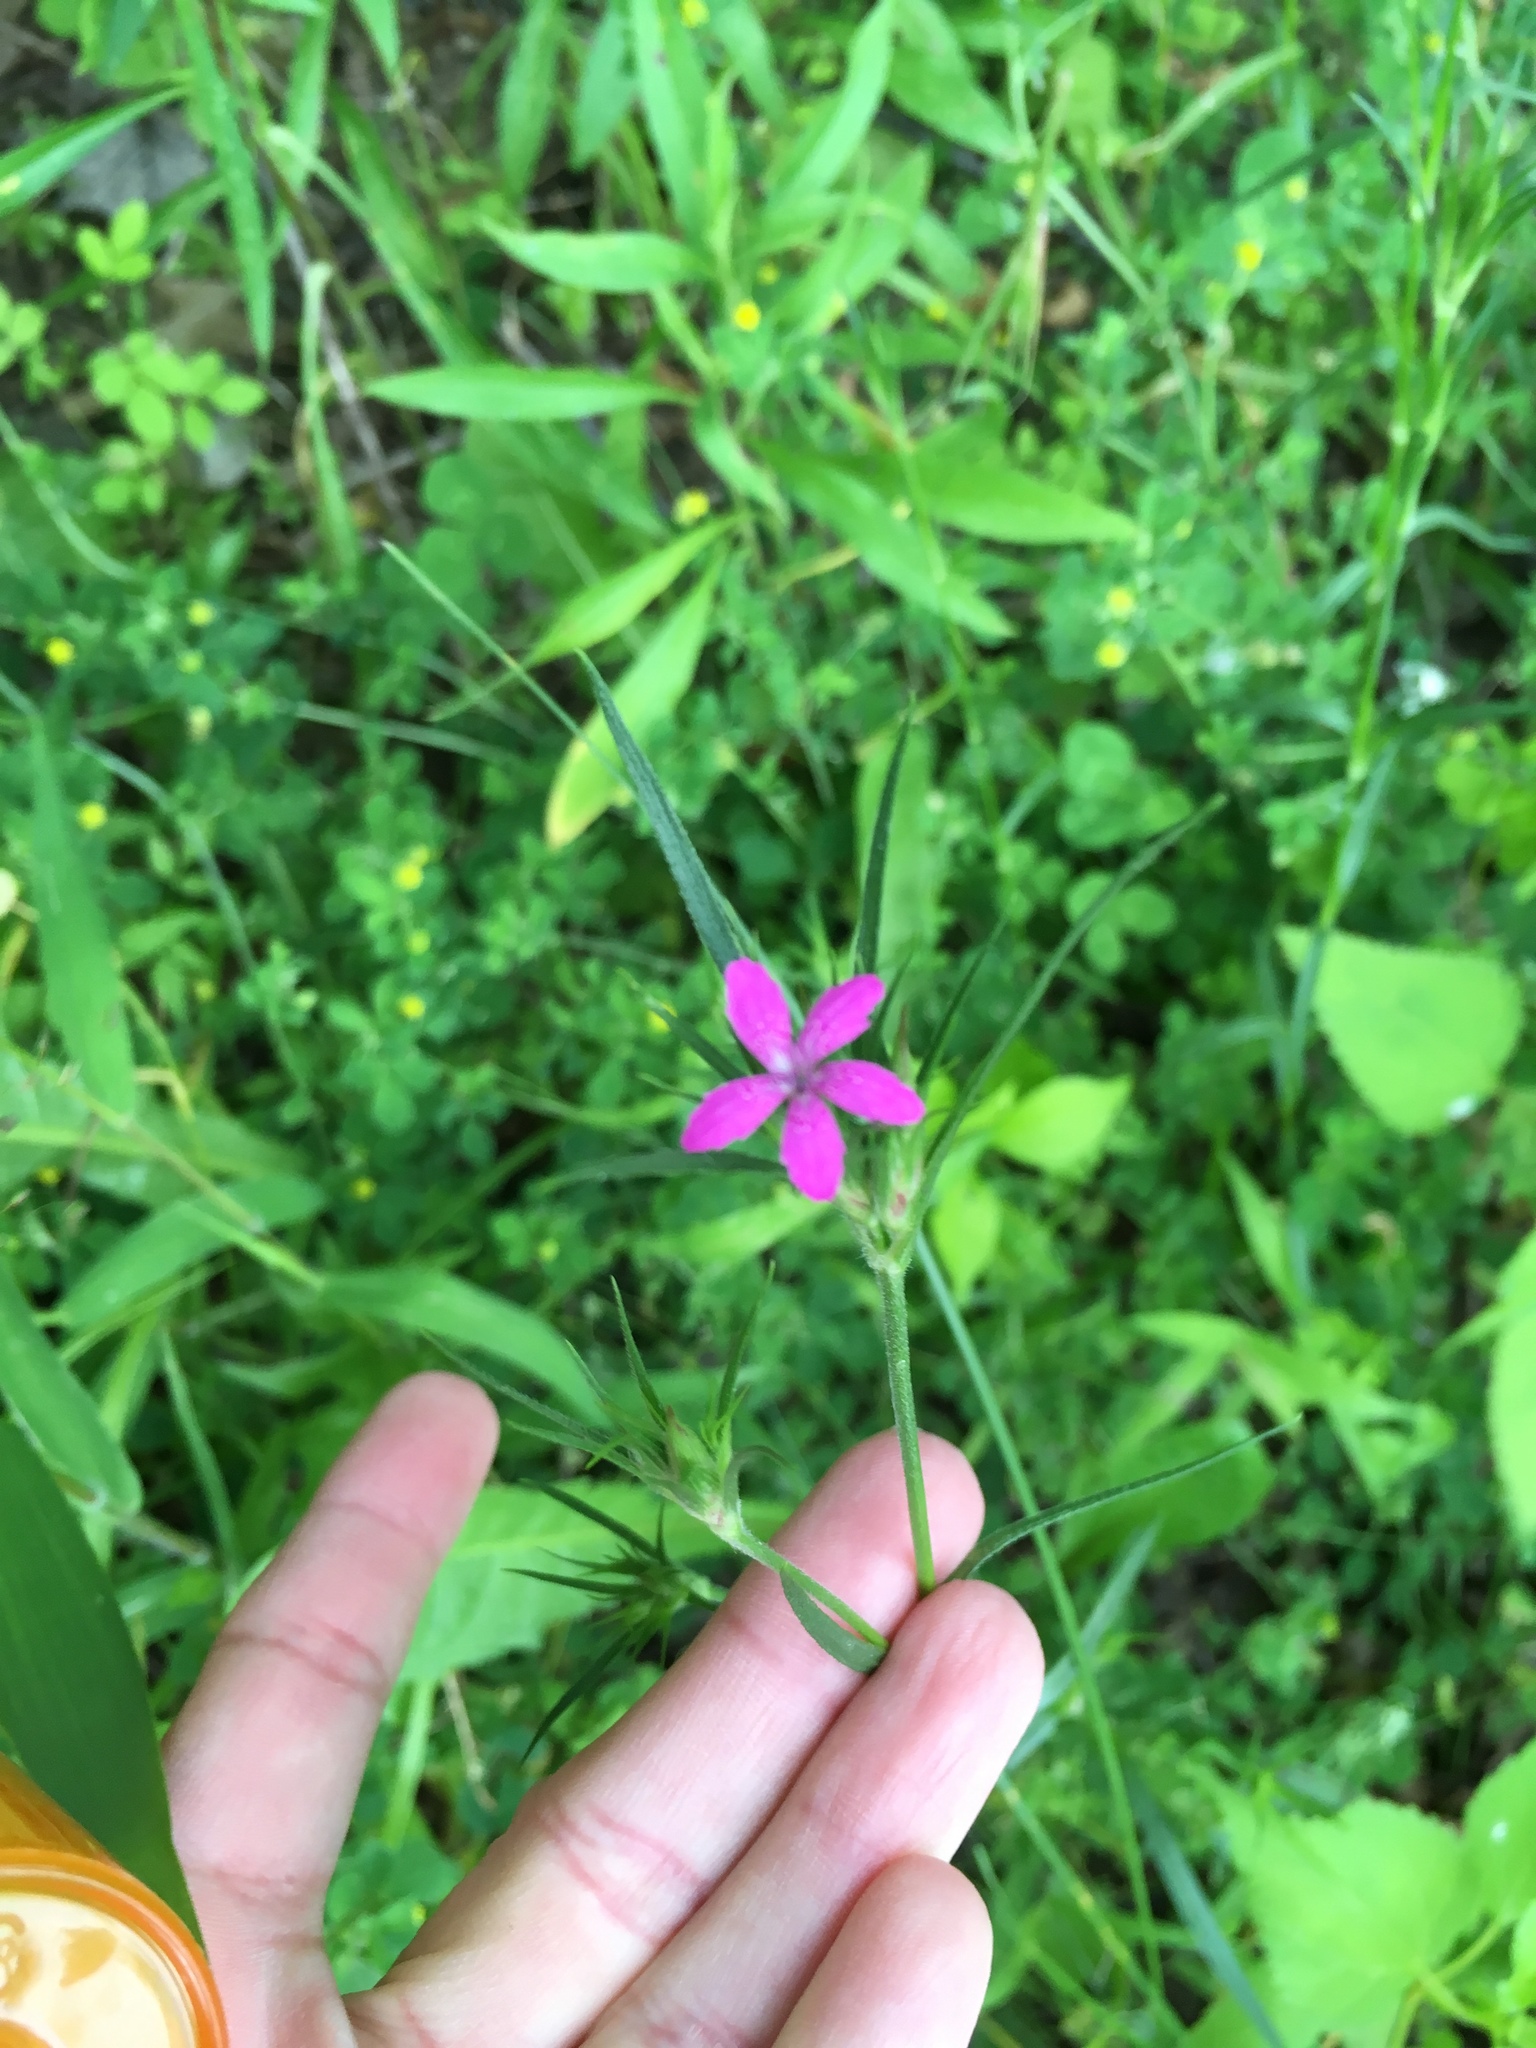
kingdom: Plantae
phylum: Tracheophyta
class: Magnoliopsida
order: Caryophyllales
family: Caryophyllaceae
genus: Dianthus
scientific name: Dianthus armeria
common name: Deptford pink
